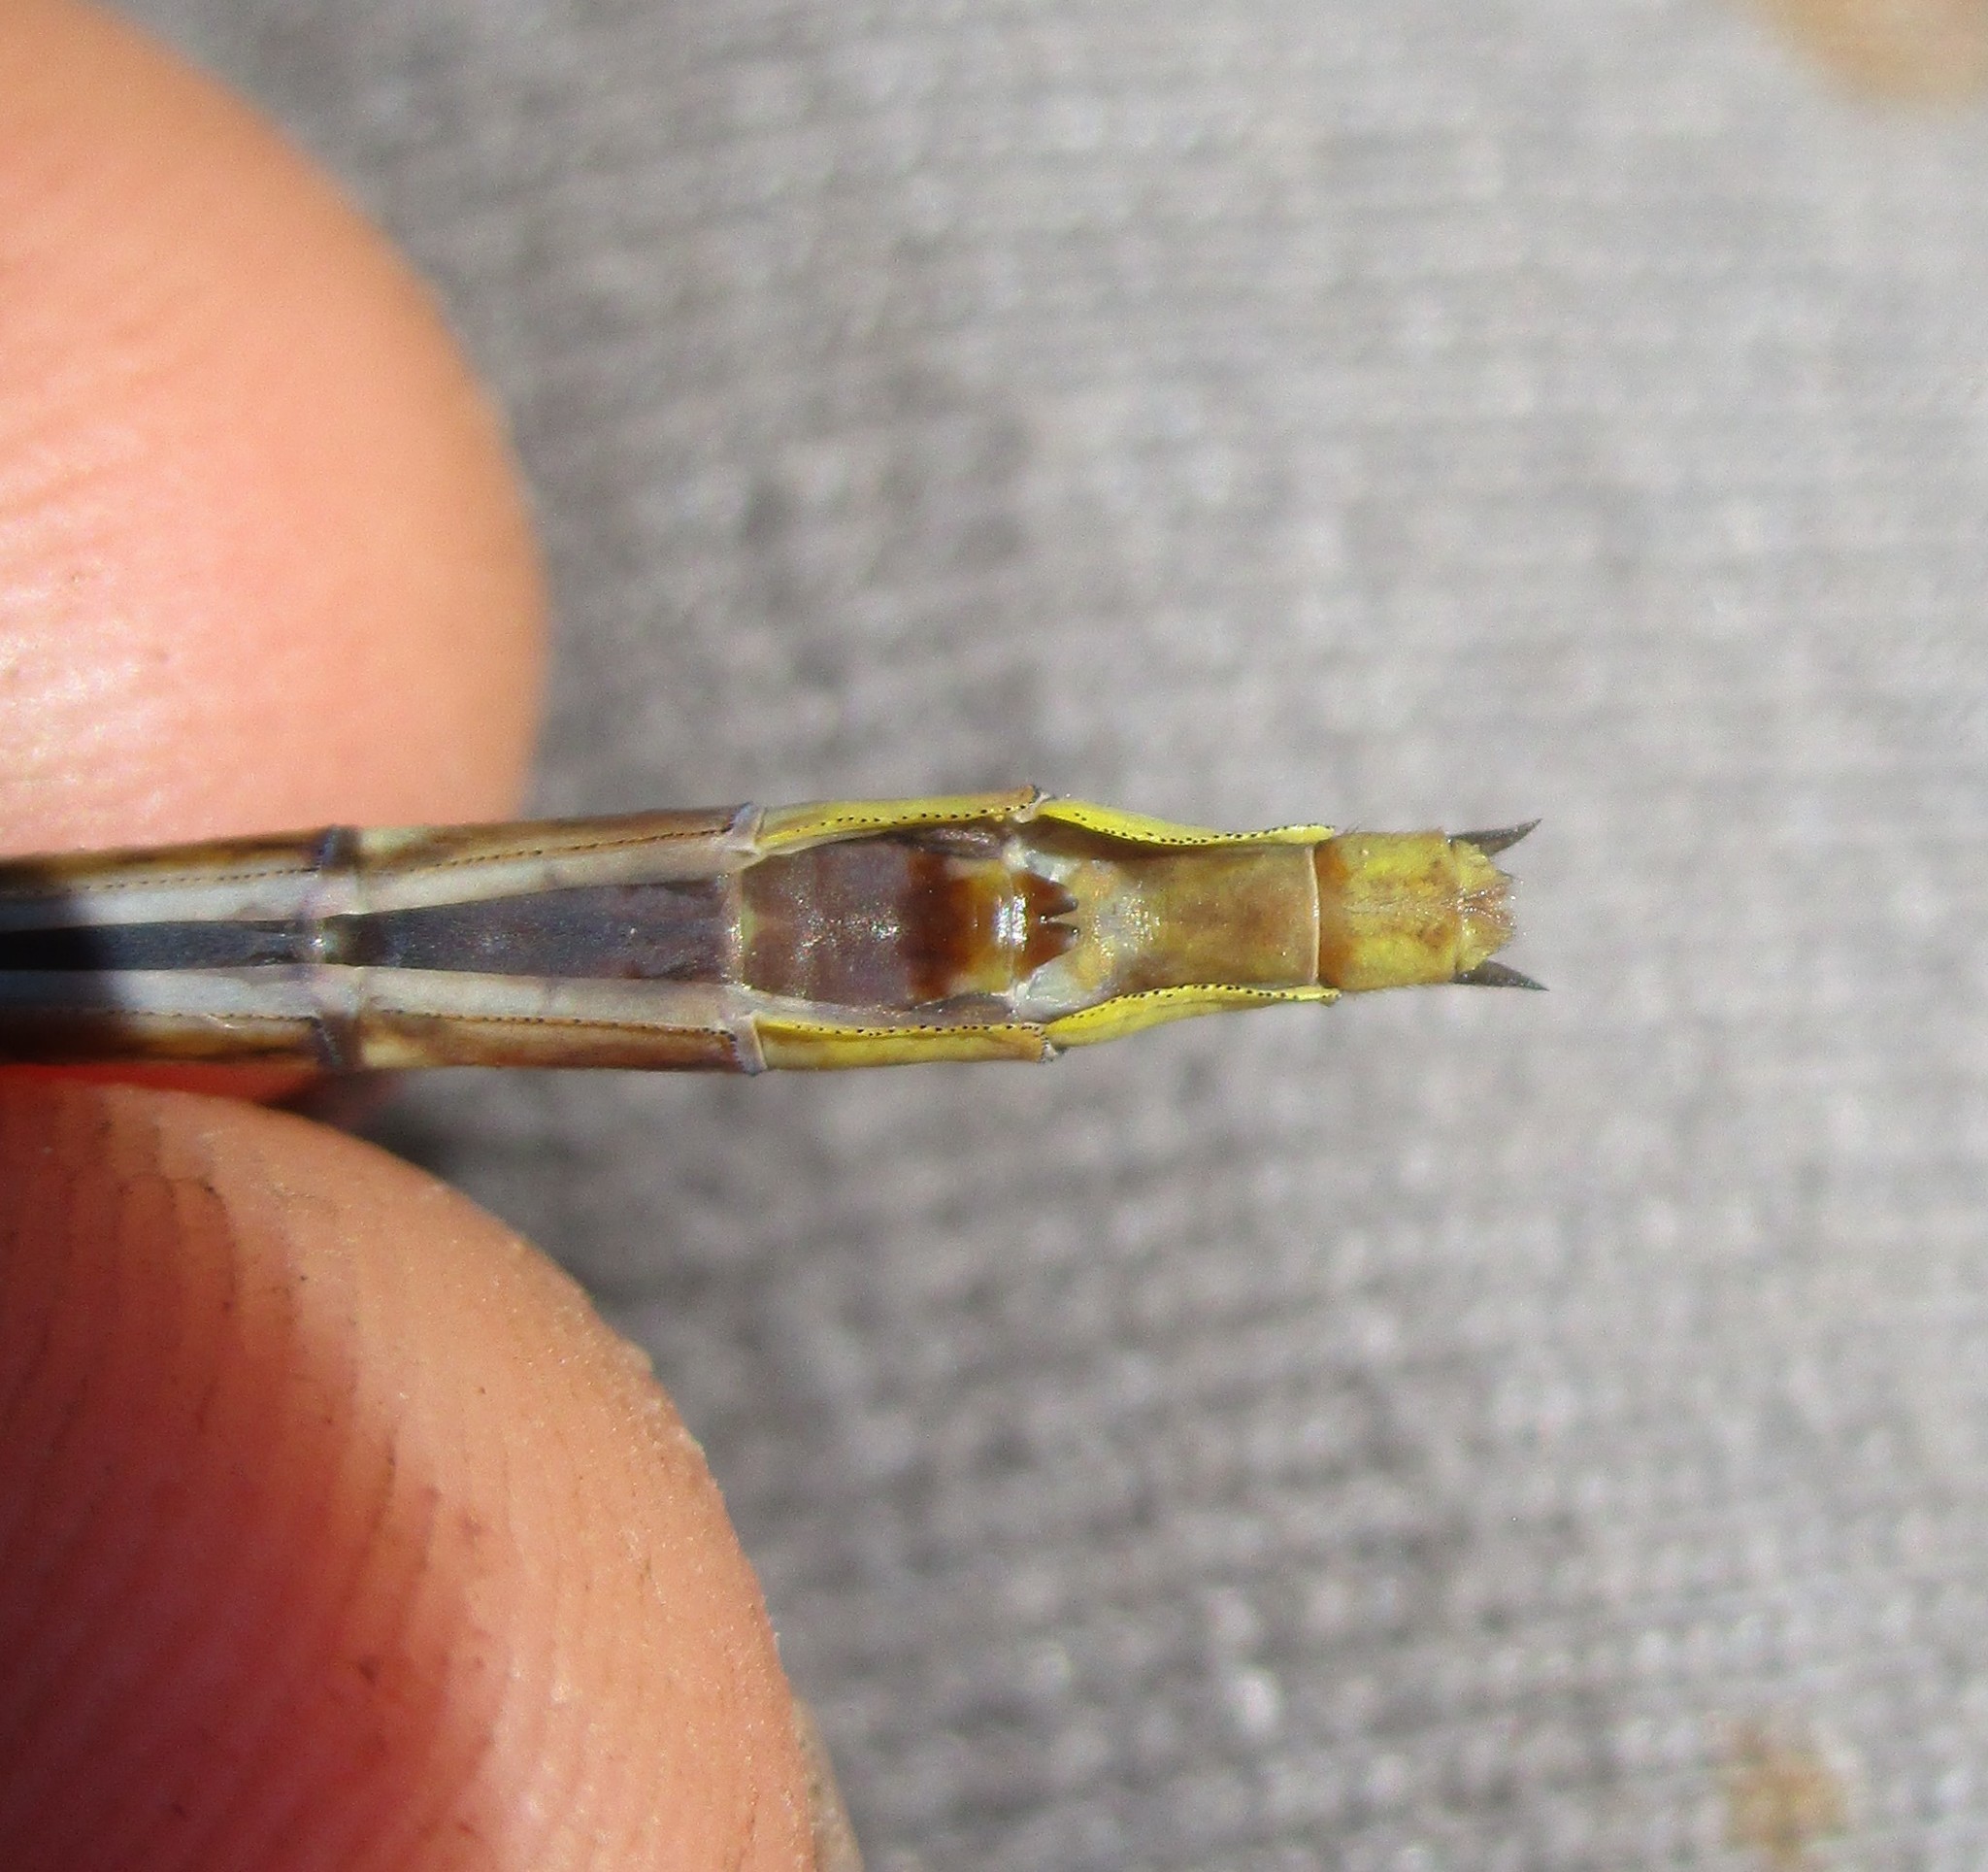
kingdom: Animalia
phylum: Arthropoda
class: Insecta
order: Odonata
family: Gomphidae
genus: Phanogomphus
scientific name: Phanogomphus exilis
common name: Lancet clubtail
